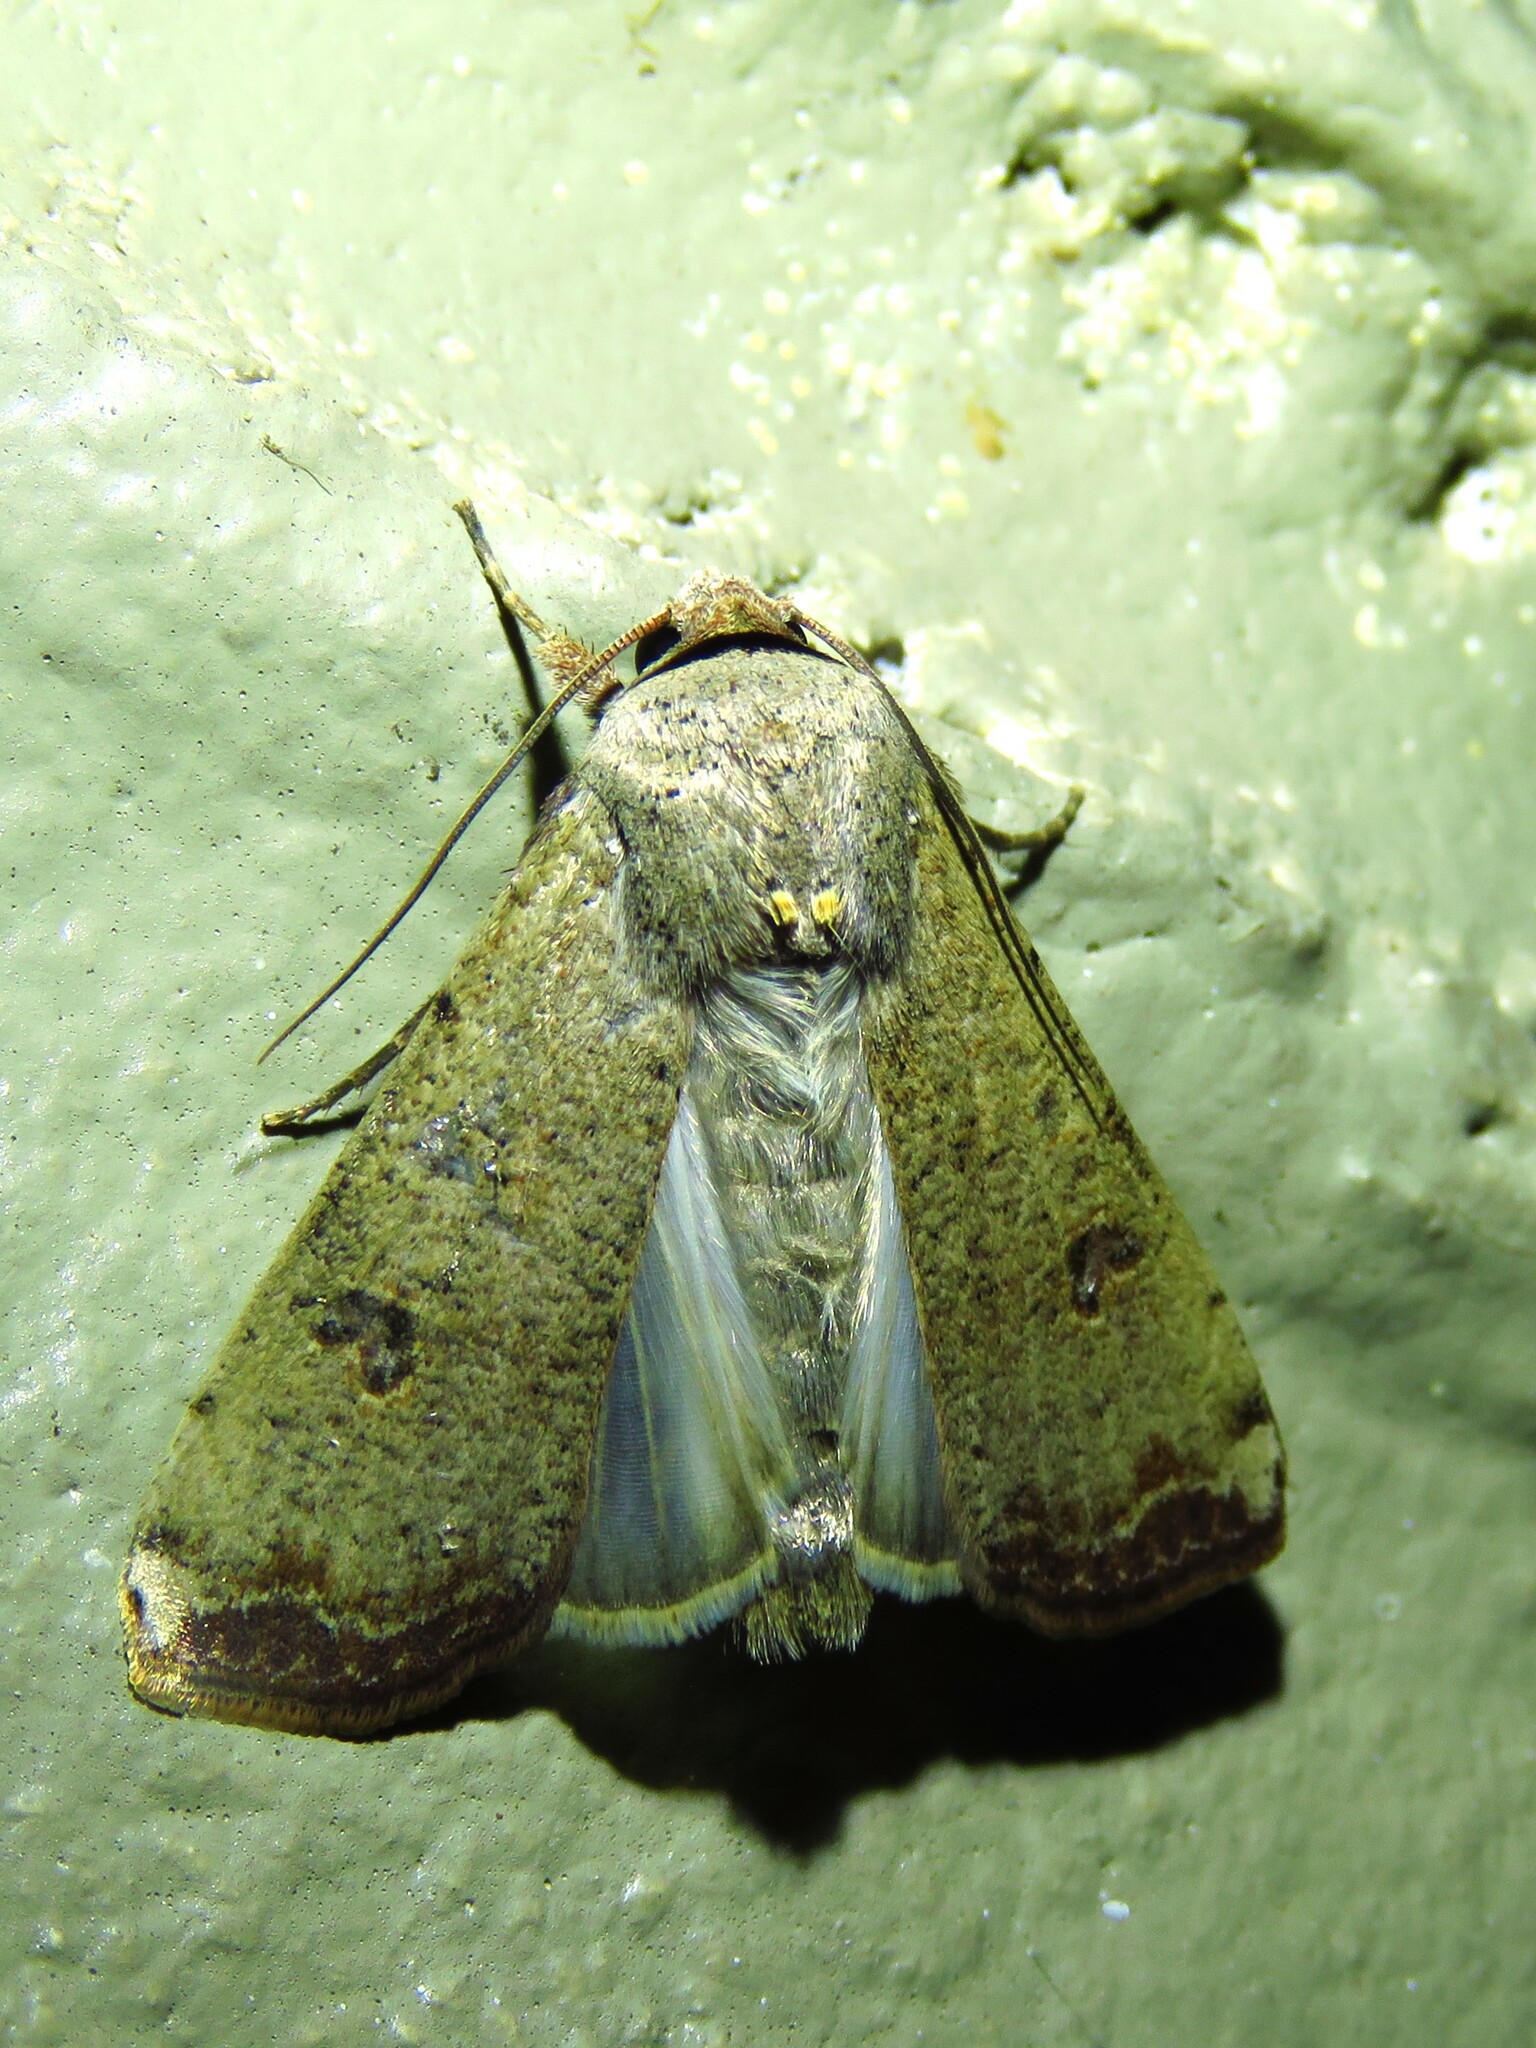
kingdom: Animalia
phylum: Arthropoda
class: Insecta
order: Lepidoptera
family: Noctuidae
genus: Anicla
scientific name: Anicla infecta
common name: Green cutworm
